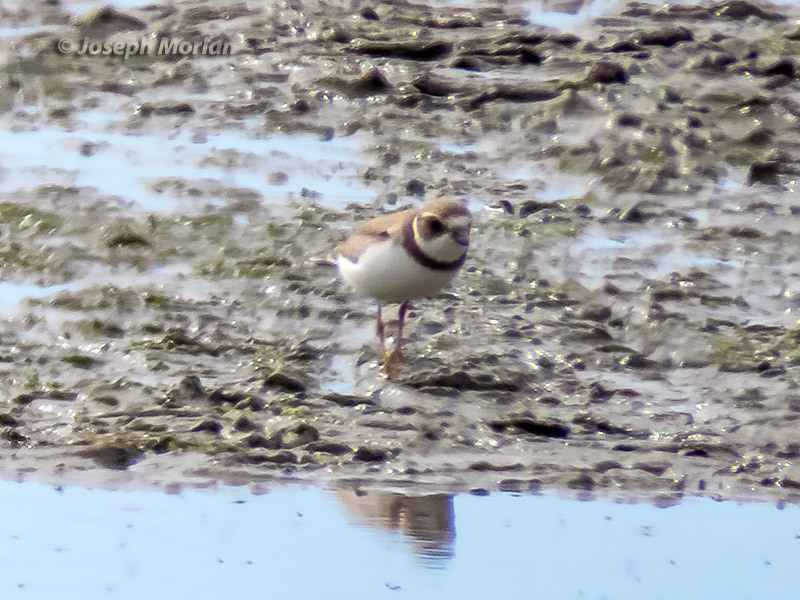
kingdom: Animalia
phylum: Chordata
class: Aves
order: Charadriiformes
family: Charadriidae
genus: Charadrius
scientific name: Charadrius semipalmatus
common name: Semipalmated plover
